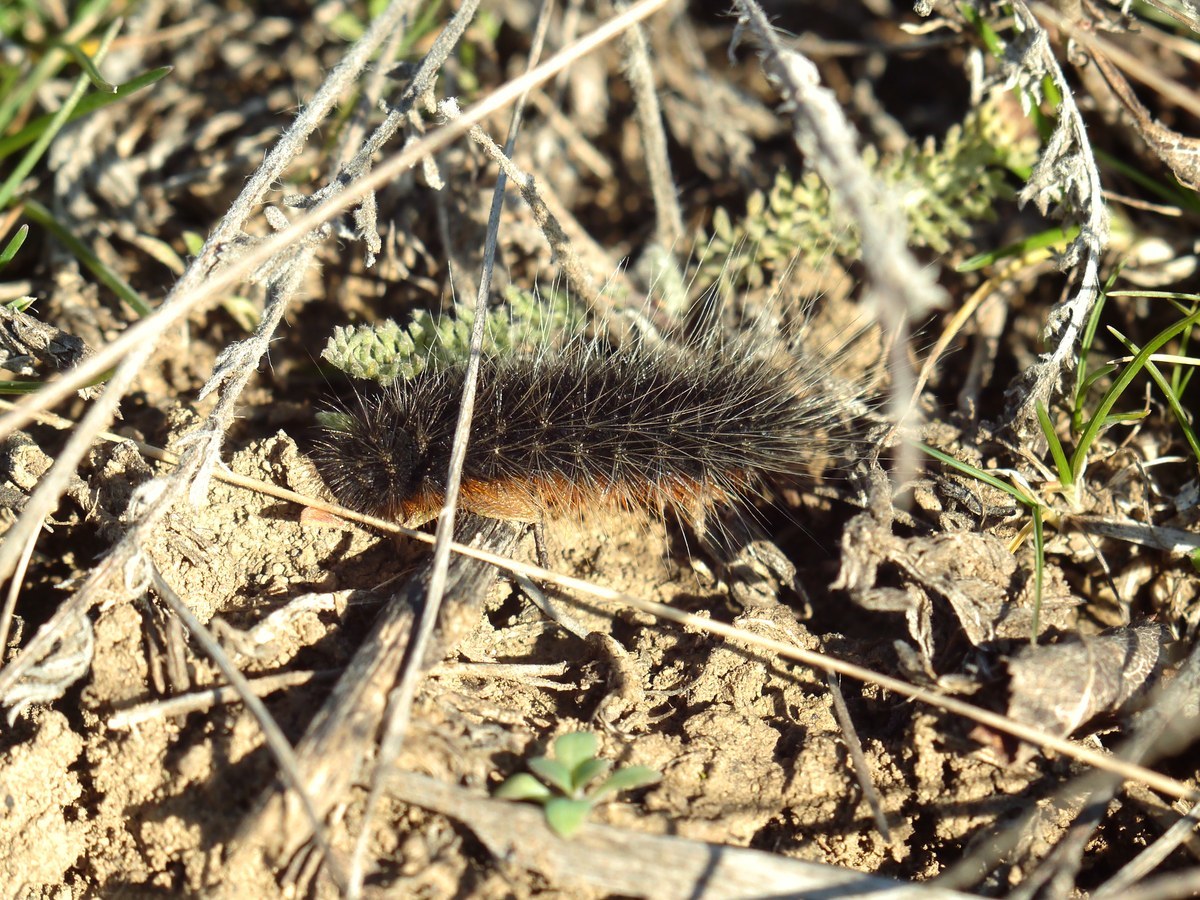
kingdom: Animalia
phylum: Arthropoda
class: Insecta
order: Lepidoptera
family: Erebidae
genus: Eucharia
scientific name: Eucharia festiva
